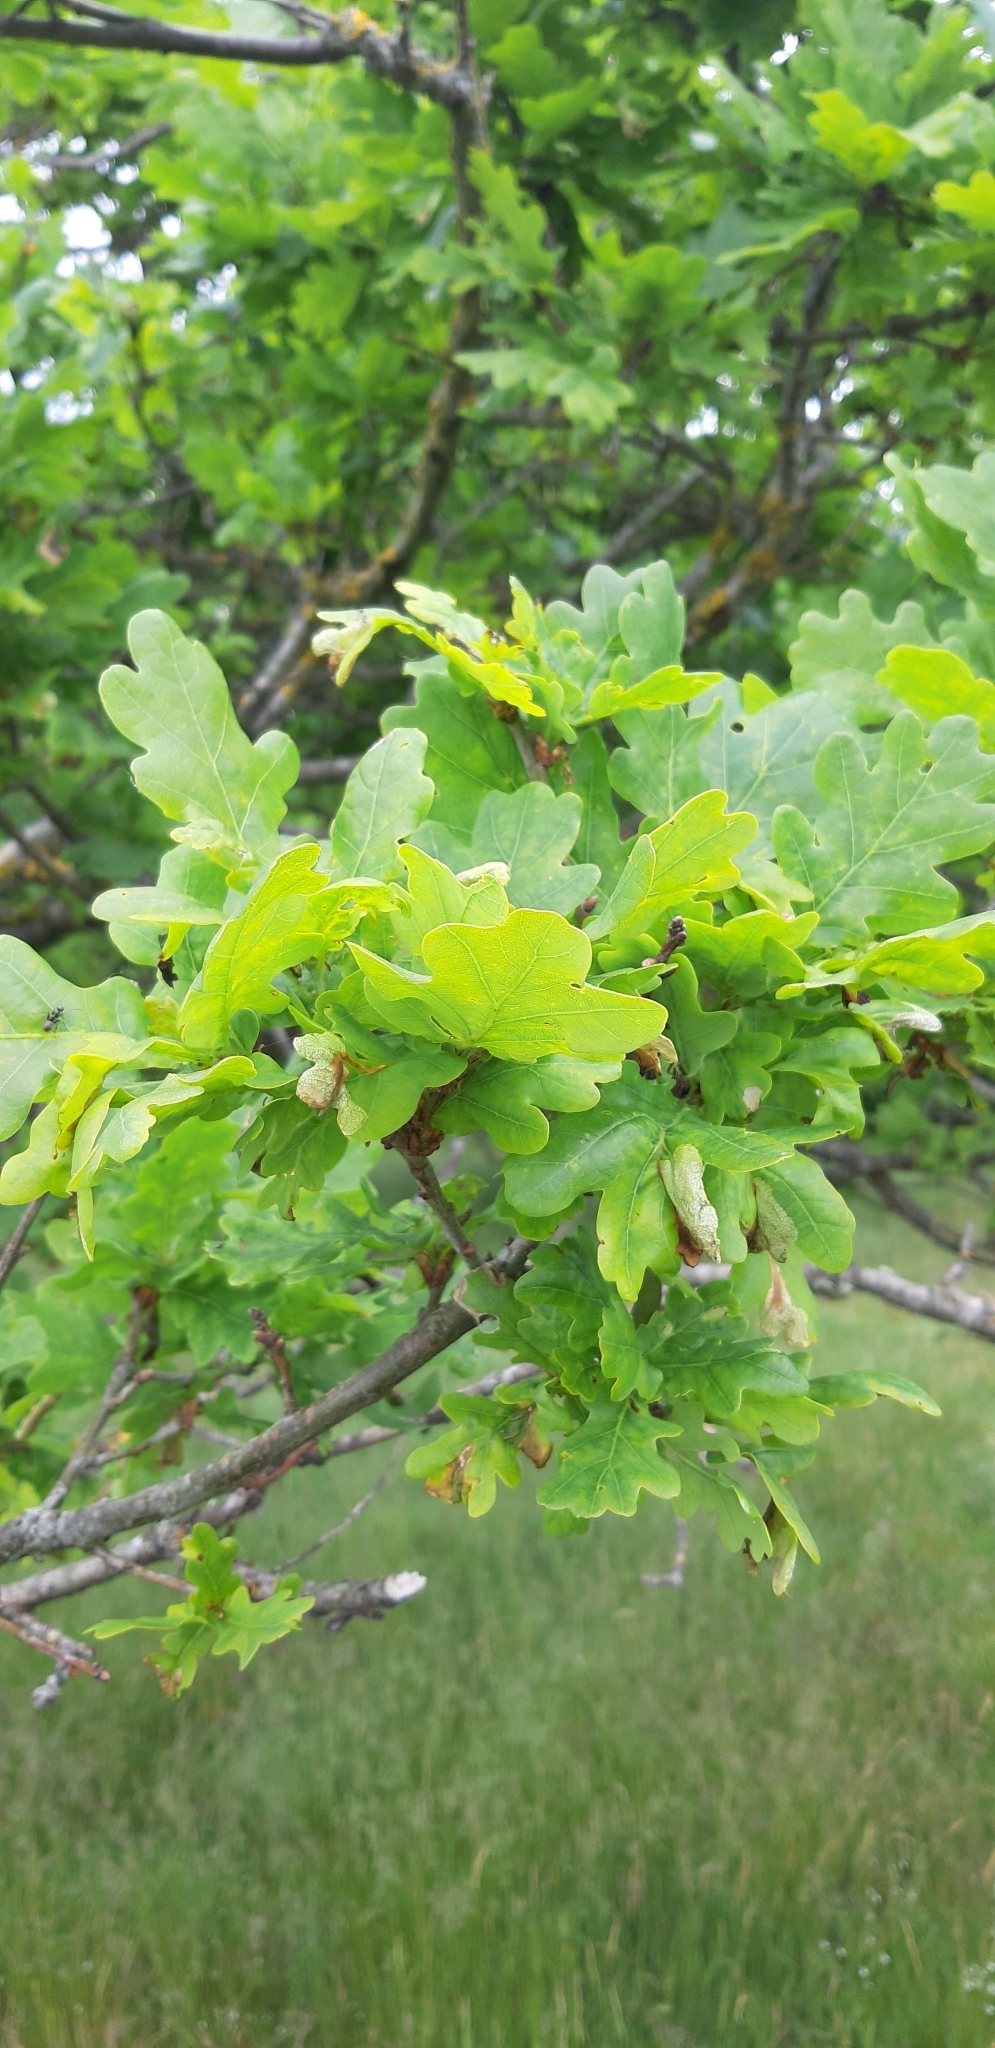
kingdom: Plantae
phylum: Tracheophyta
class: Magnoliopsida
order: Fagales
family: Fagaceae
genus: Quercus
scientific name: Quercus robur
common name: Pedunculate oak
